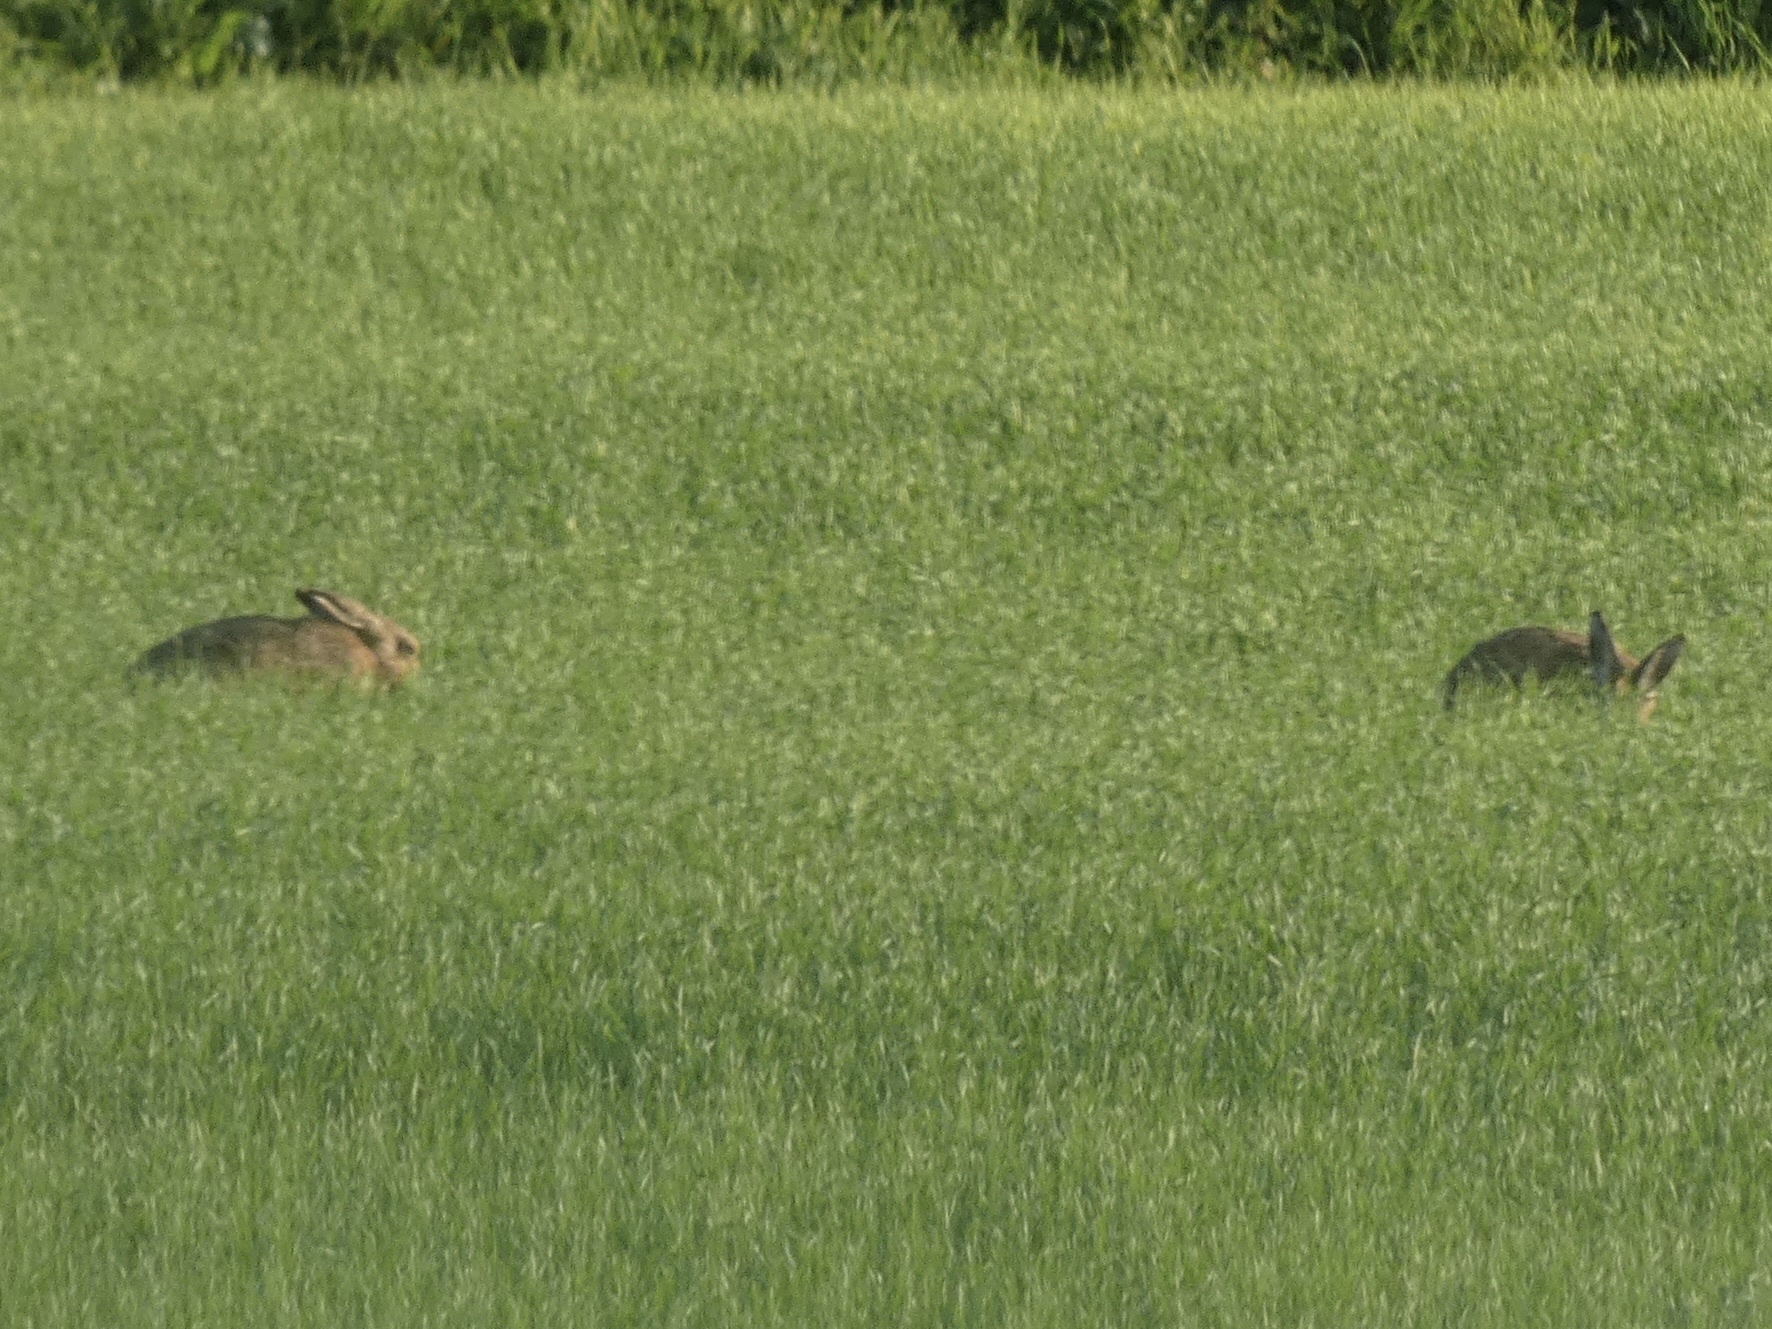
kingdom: Animalia
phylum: Chordata
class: Mammalia
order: Lagomorpha
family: Leporidae
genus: Lepus
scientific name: Lepus europaeus
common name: European hare
